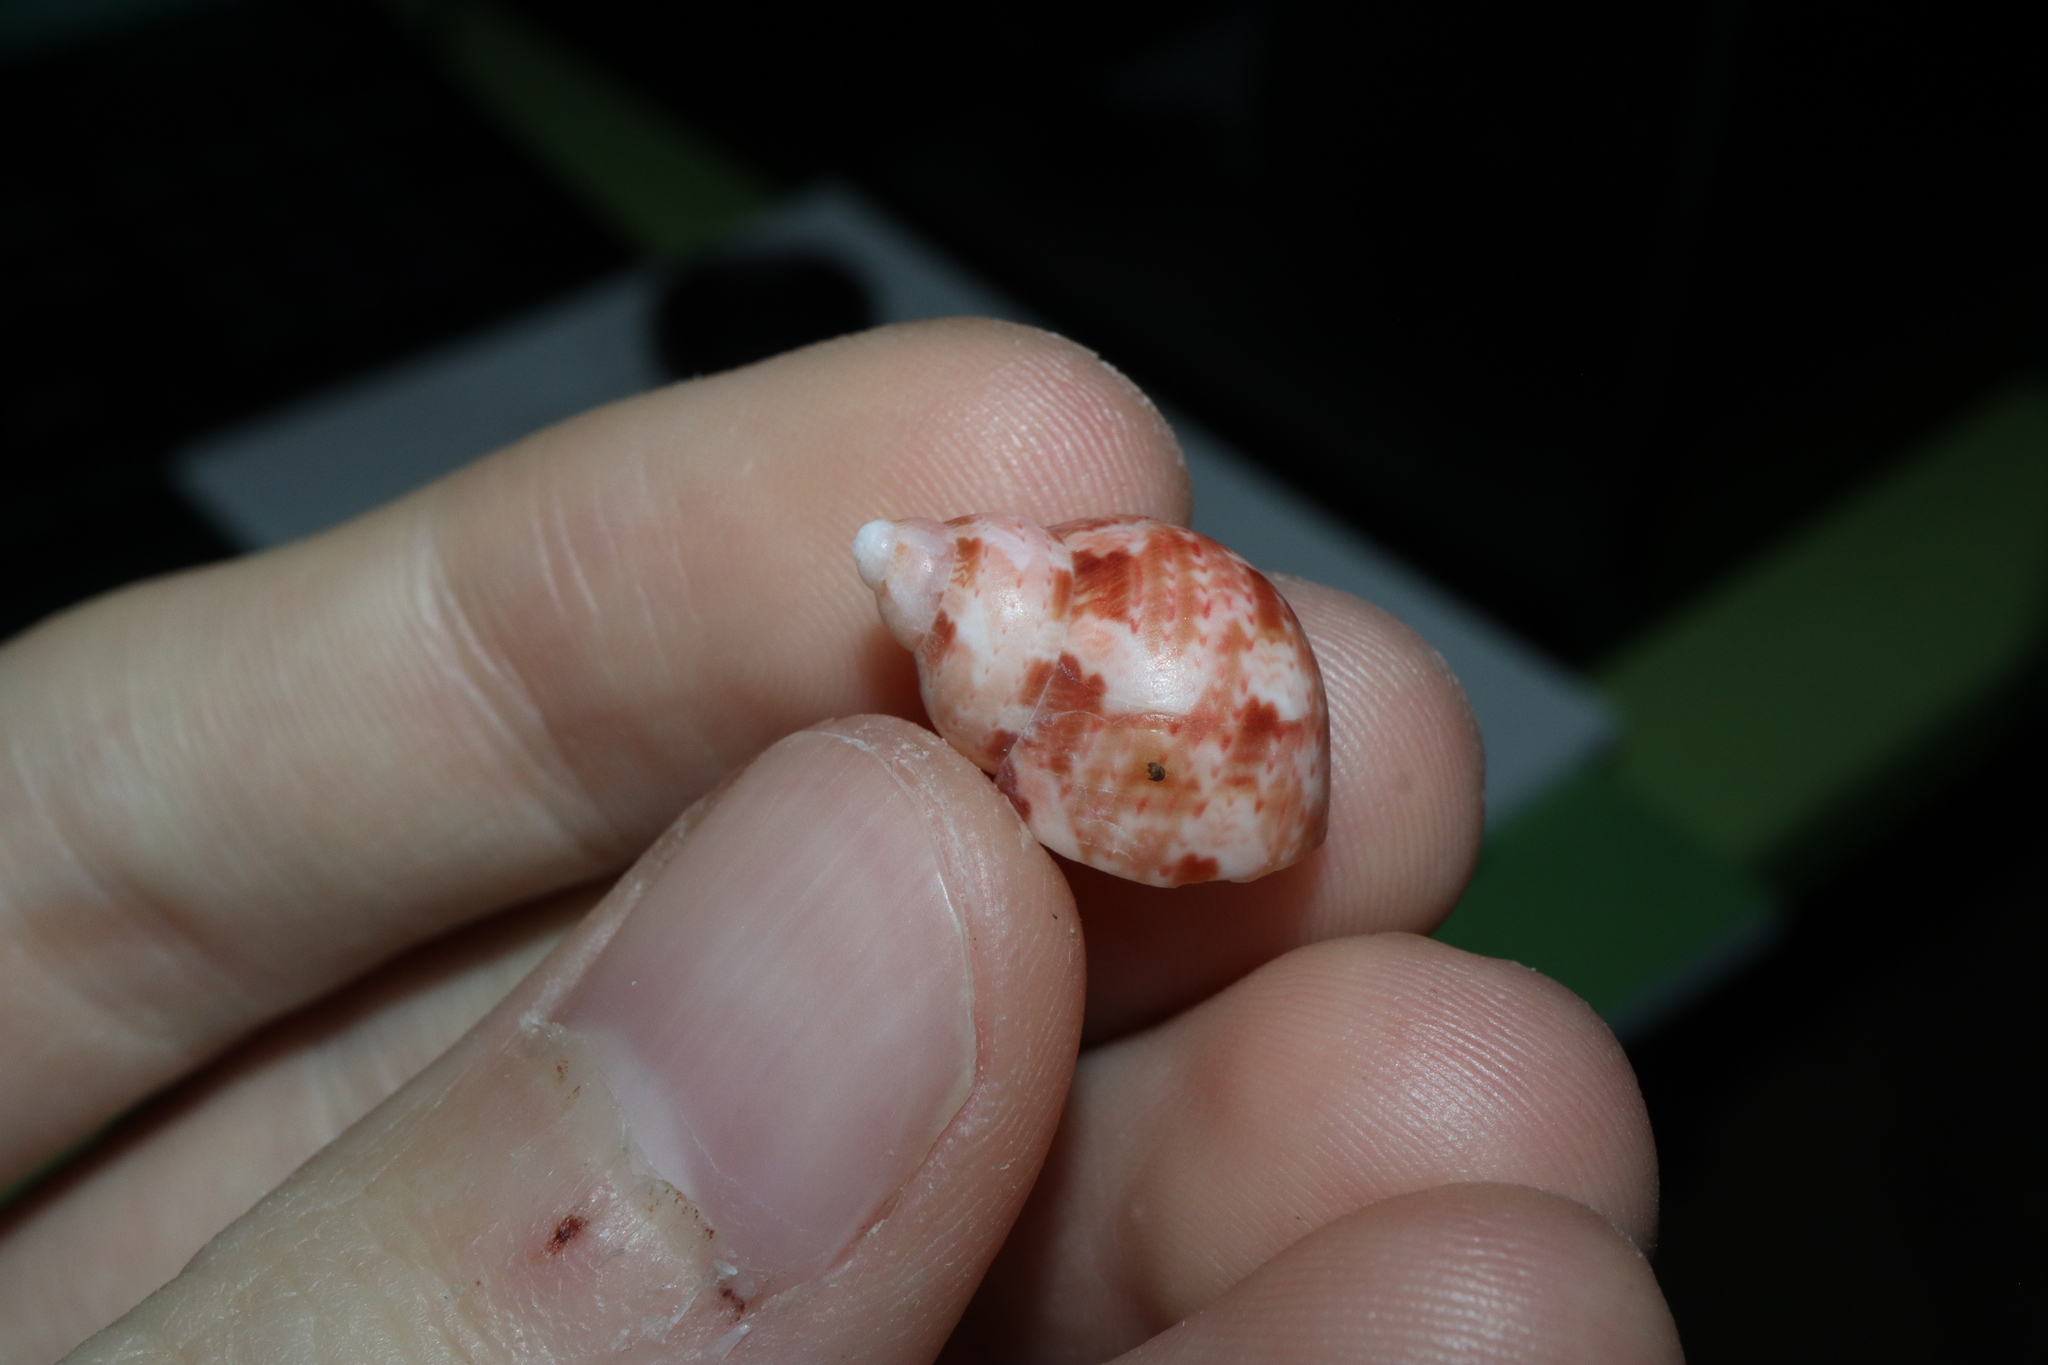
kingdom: Animalia
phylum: Mollusca
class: Gastropoda
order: Trochida
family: Phasianellidae
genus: Phasianella
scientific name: Phasianella ventricosa
